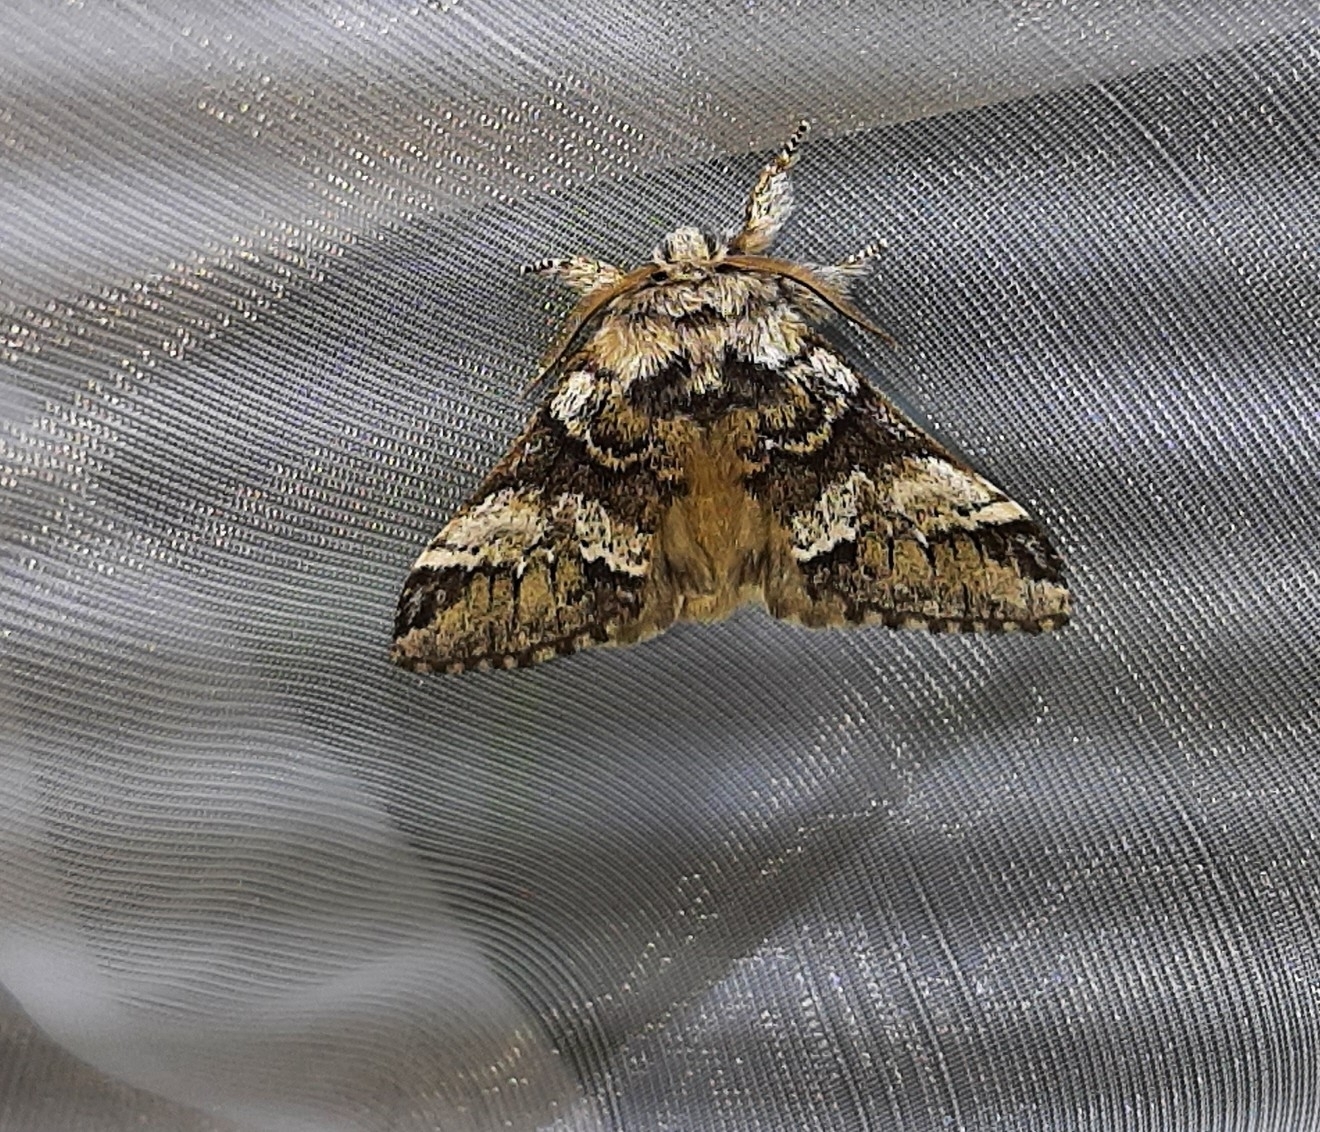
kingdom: Animalia
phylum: Arthropoda
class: Insecta
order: Lepidoptera
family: Notodontidae
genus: Drymonia
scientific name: Drymonia dodonaea
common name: Marbled brown
